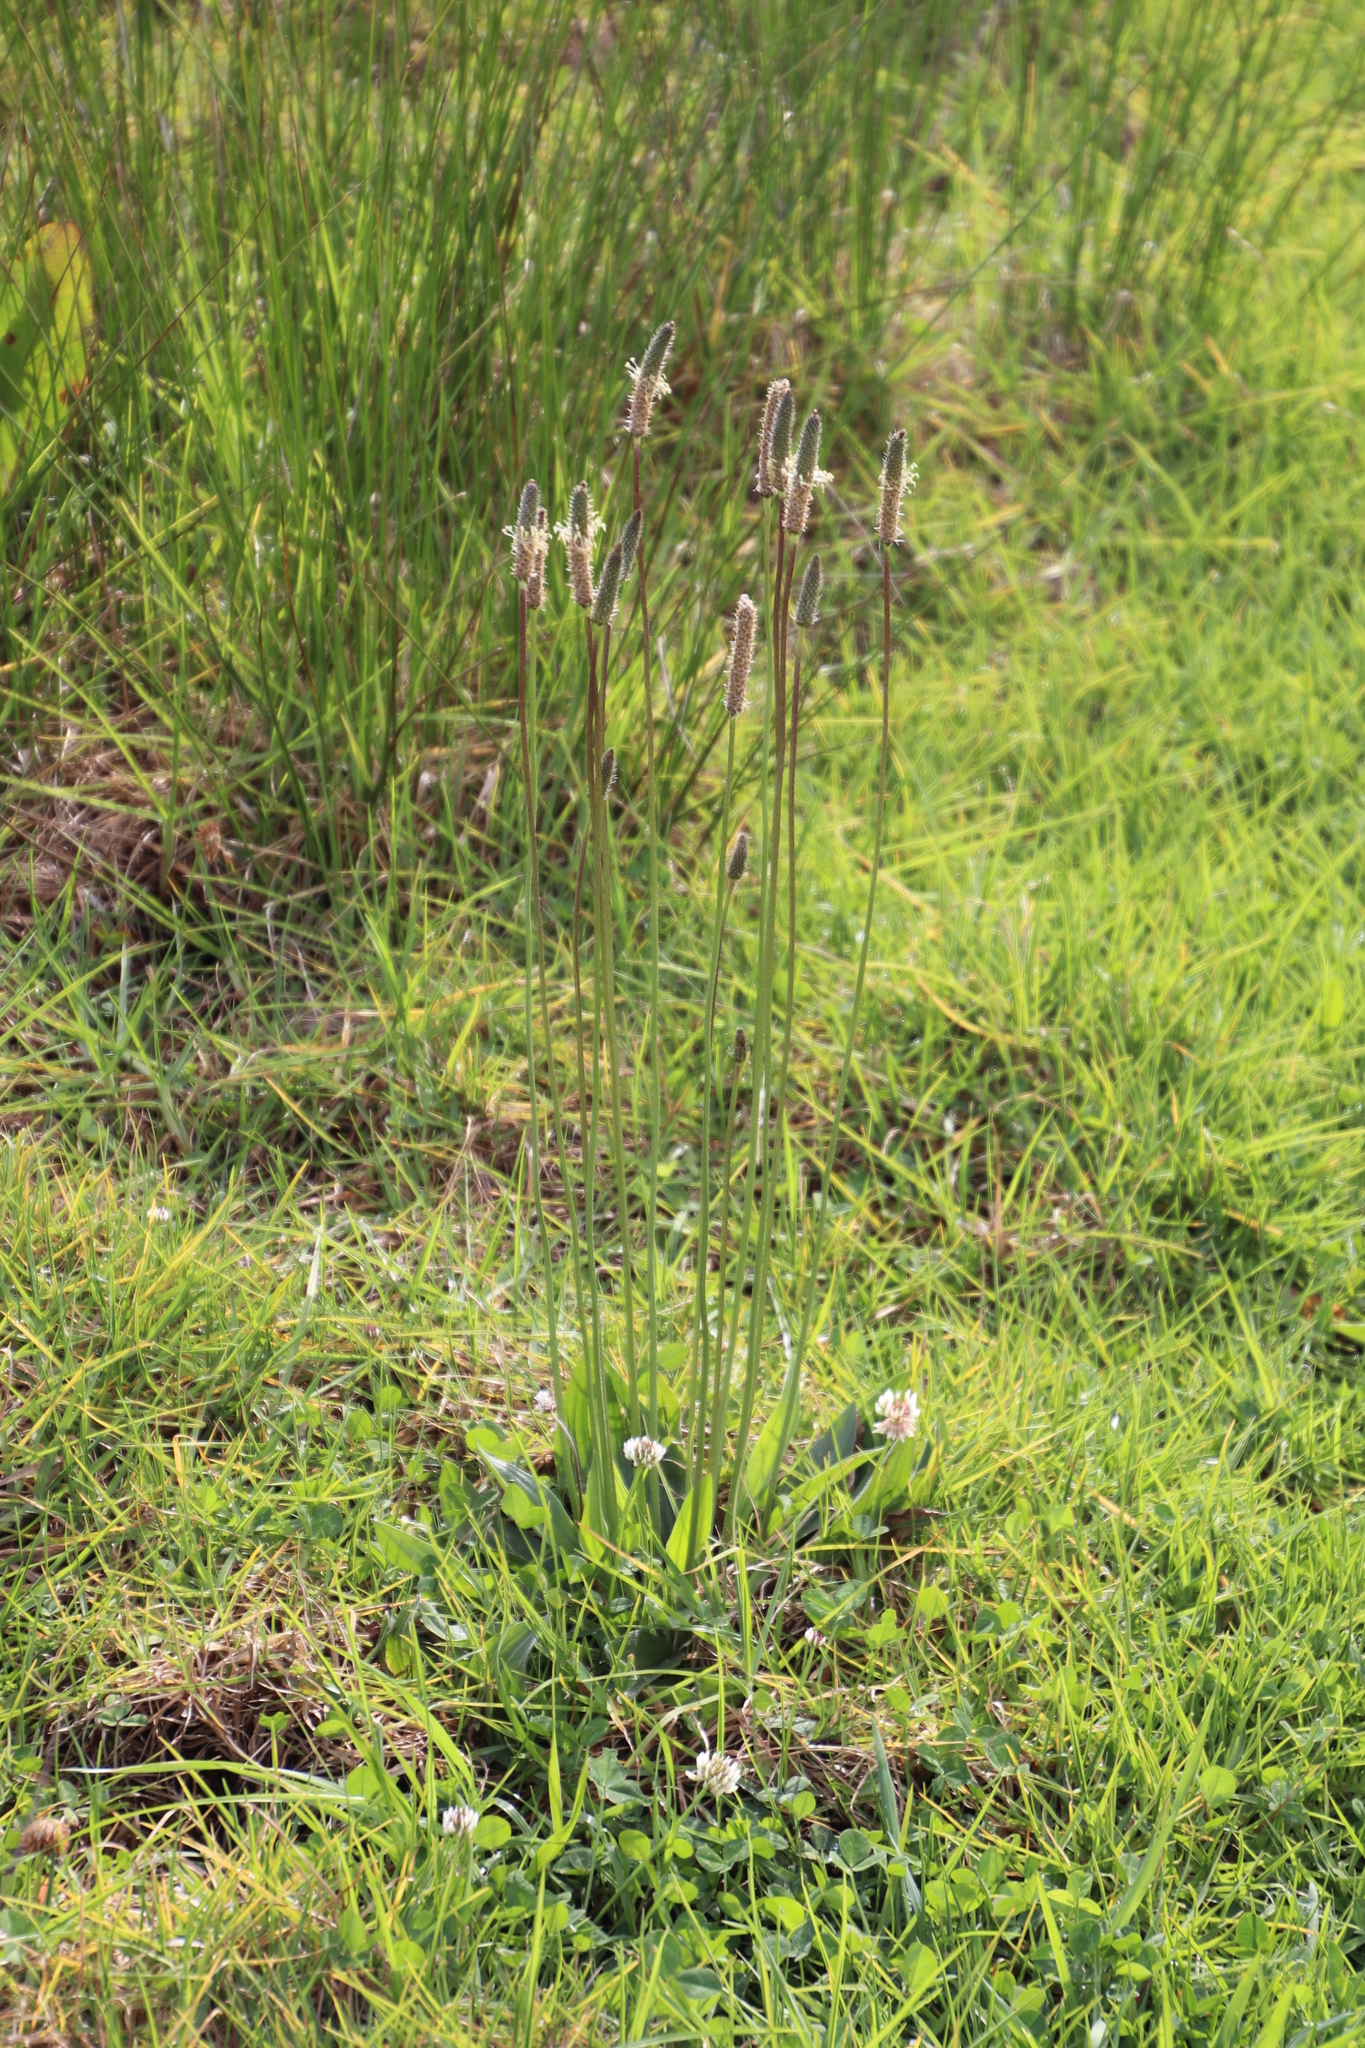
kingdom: Plantae
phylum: Tracheophyta
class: Magnoliopsida
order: Lamiales
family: Plantaginaceae
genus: Plantago
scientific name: Plantago lanceolata
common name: Ribwort plantain
